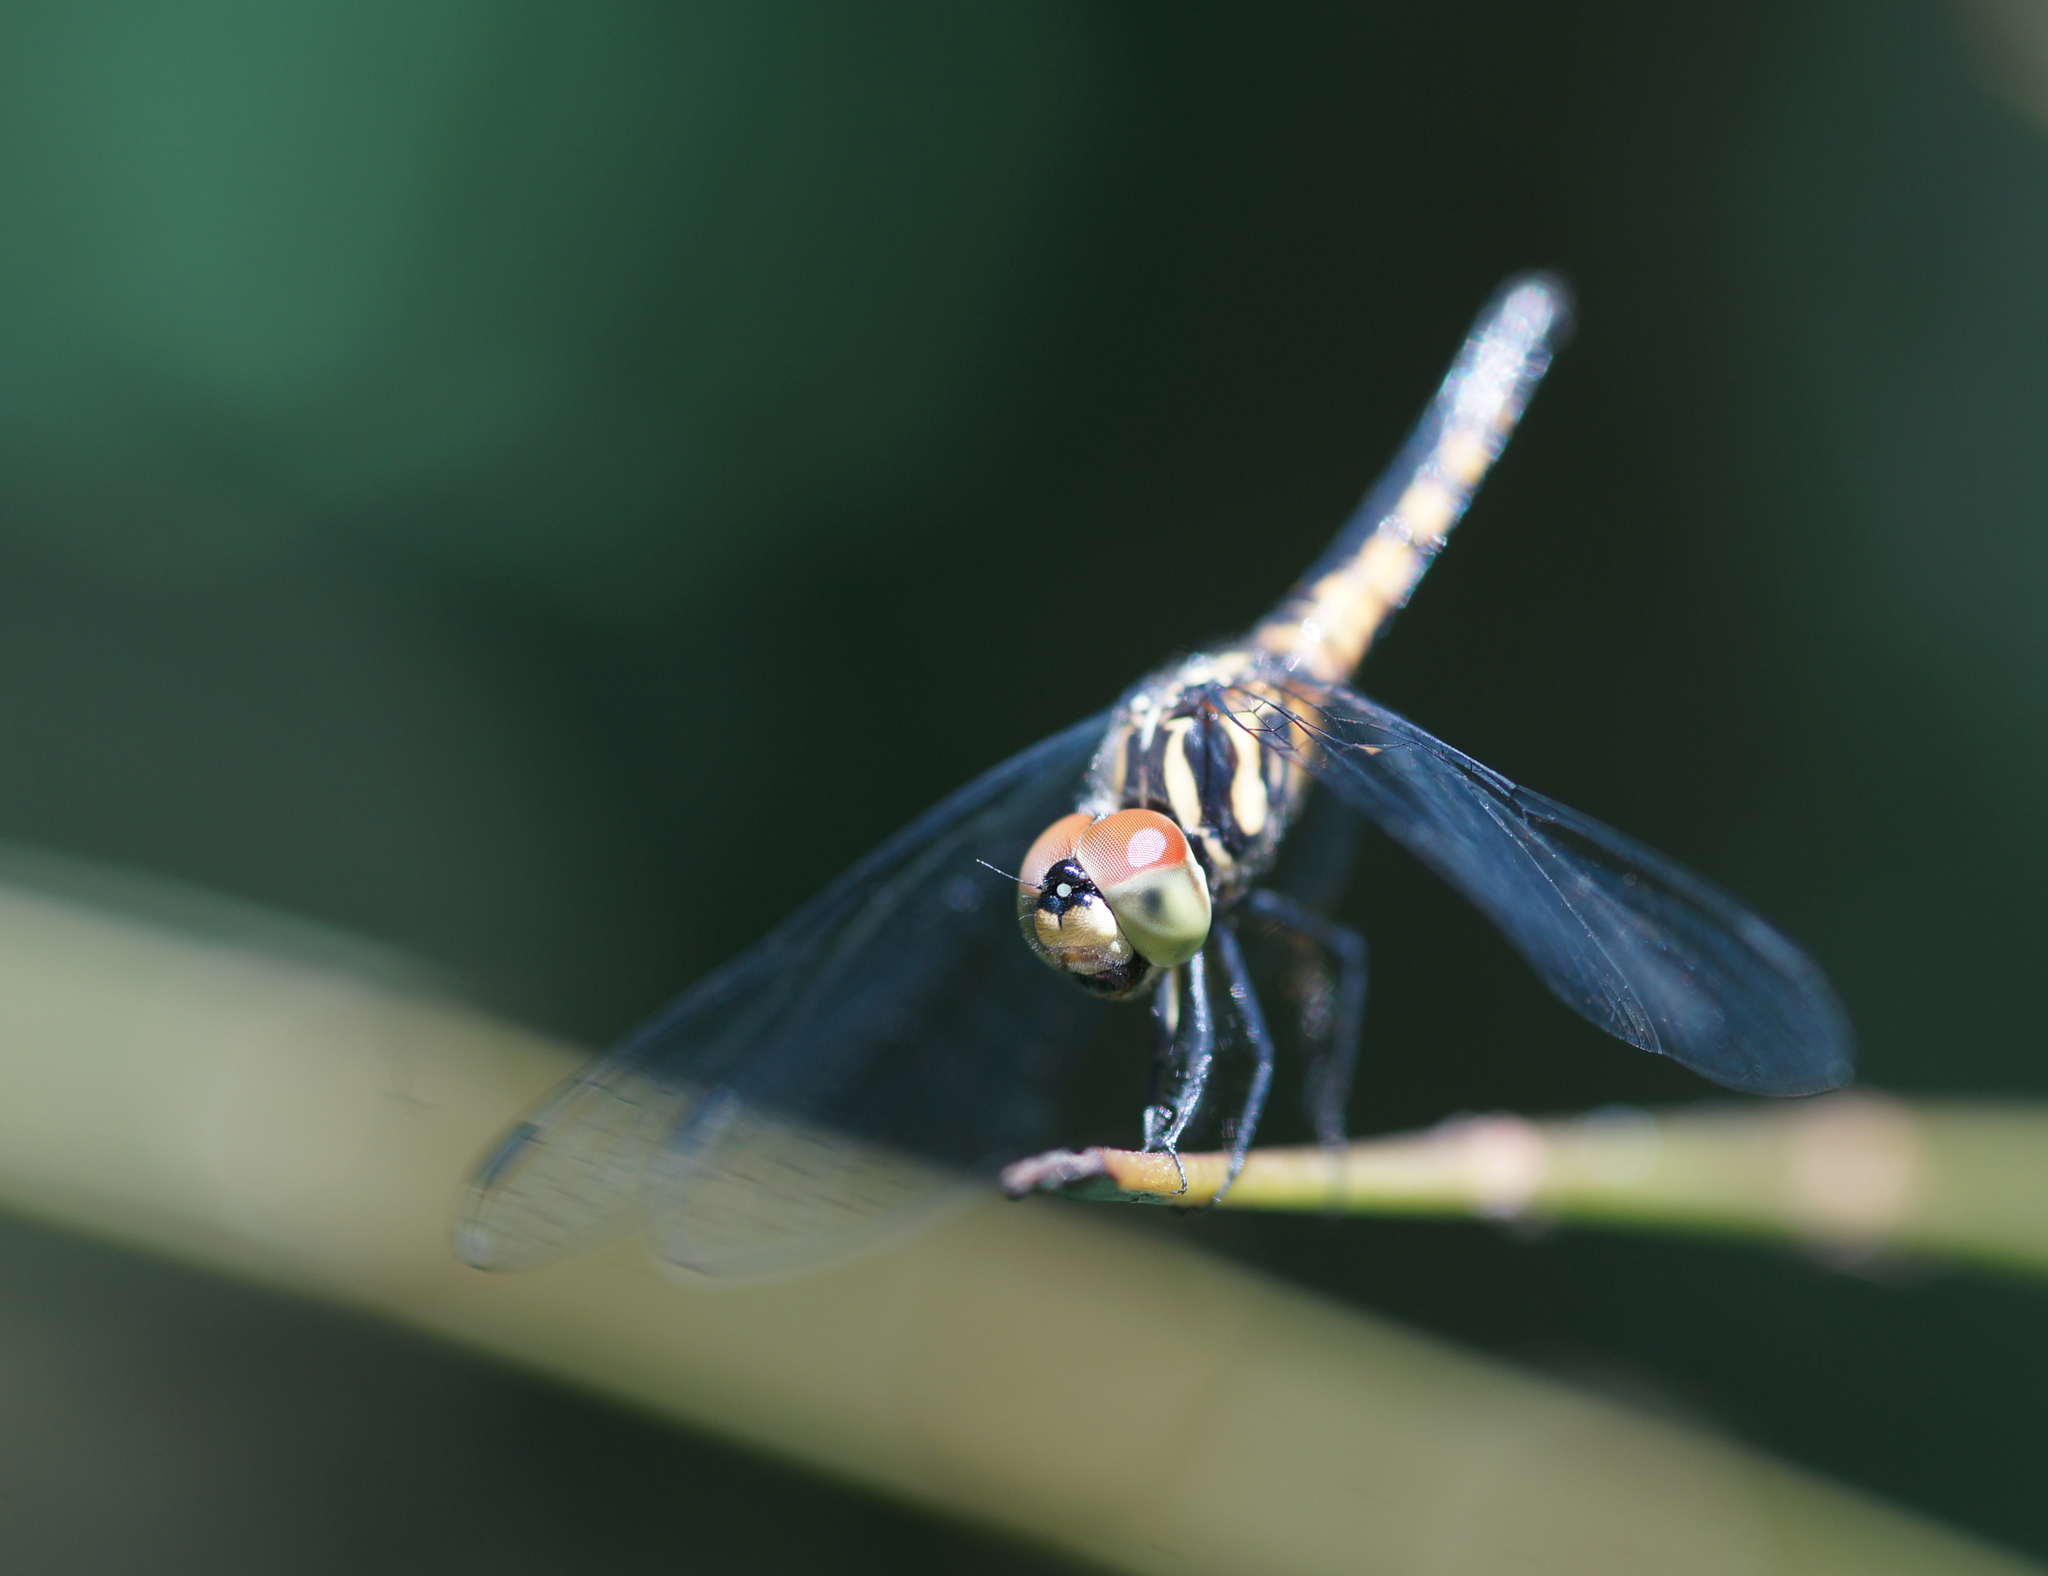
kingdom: Animalia
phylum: Arthropoda
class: Insecta
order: Odonata
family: Libellulidae
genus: Aethriamanta
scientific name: Aethriamanta aethra
